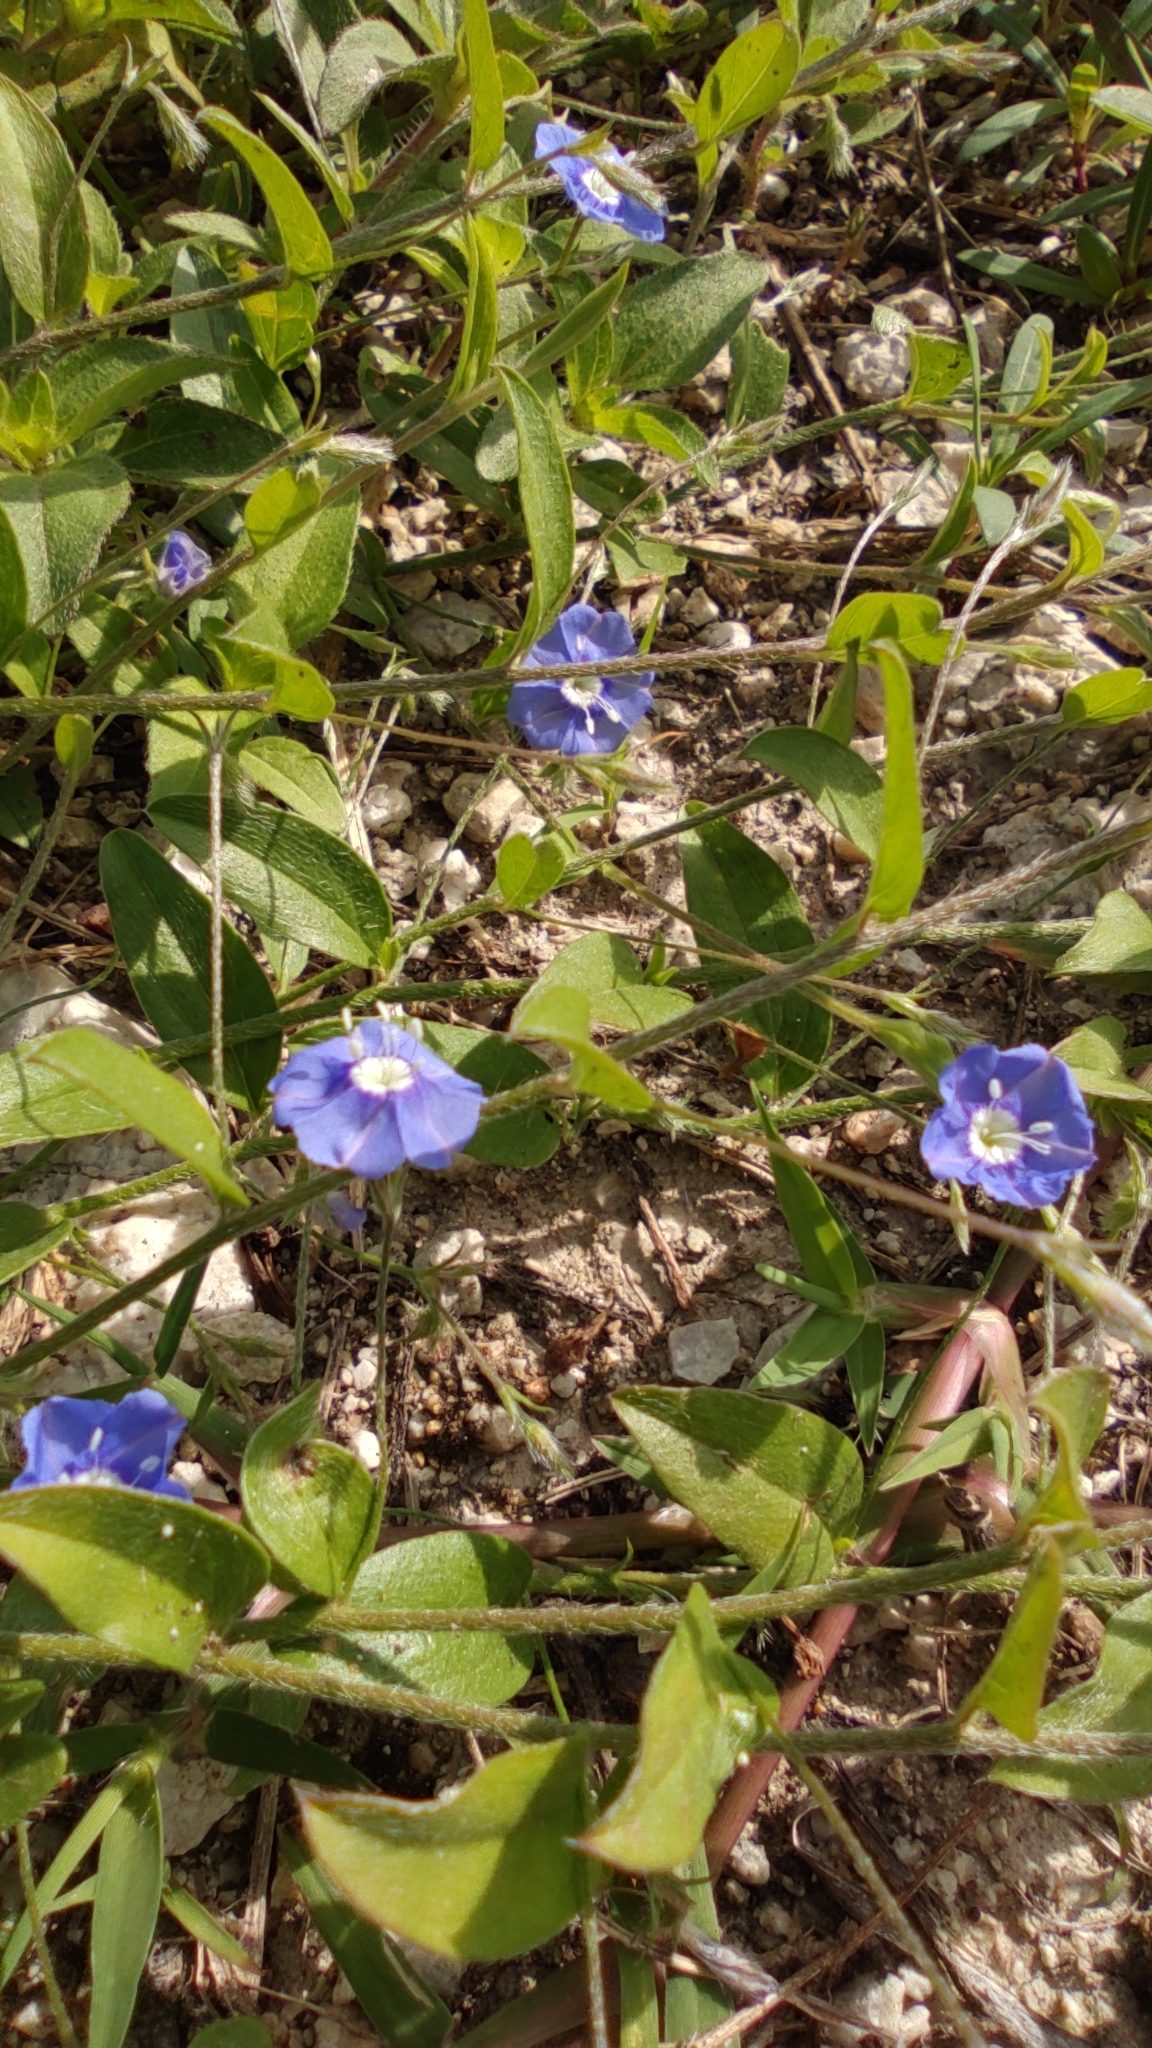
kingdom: Plantae
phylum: Tracheophyta
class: Magnoliopsida
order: Solanales
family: Convolvulaceae
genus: Evolvulus
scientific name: Evolvulus alsinoides
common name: Slender dwarf morning-glory
